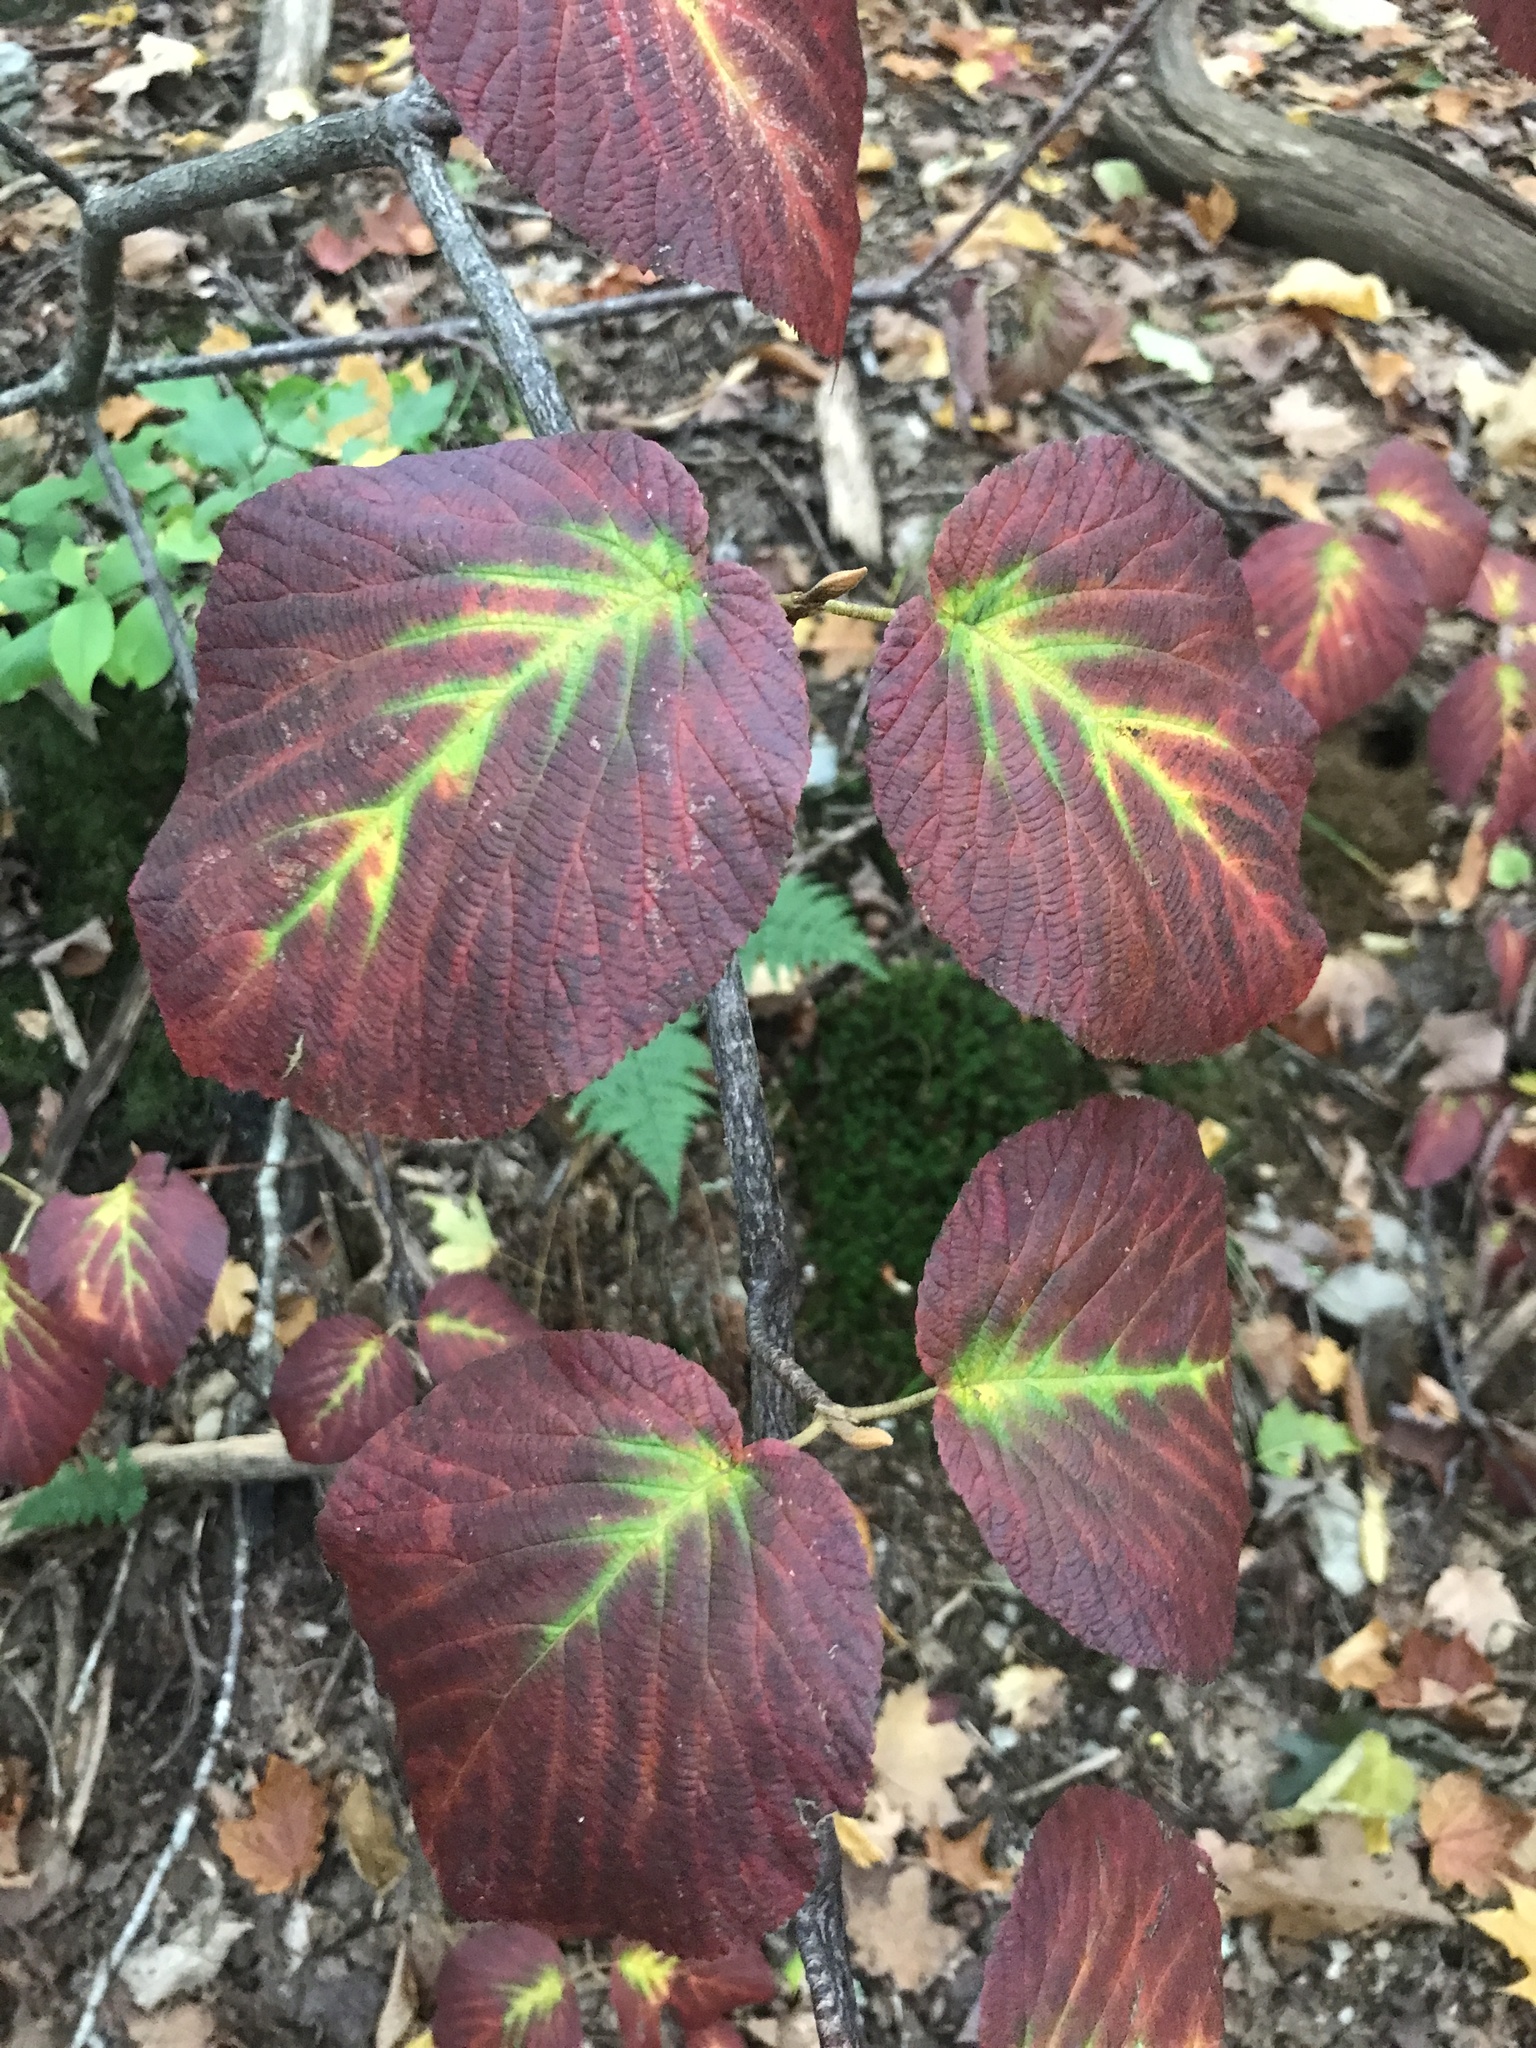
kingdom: Plantae
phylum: Tracheophyta
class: Magnoliopsida
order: Dipsacales
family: Viburnaceae
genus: Viburnum
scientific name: Viburnum lantanoides
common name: Hobblebush
